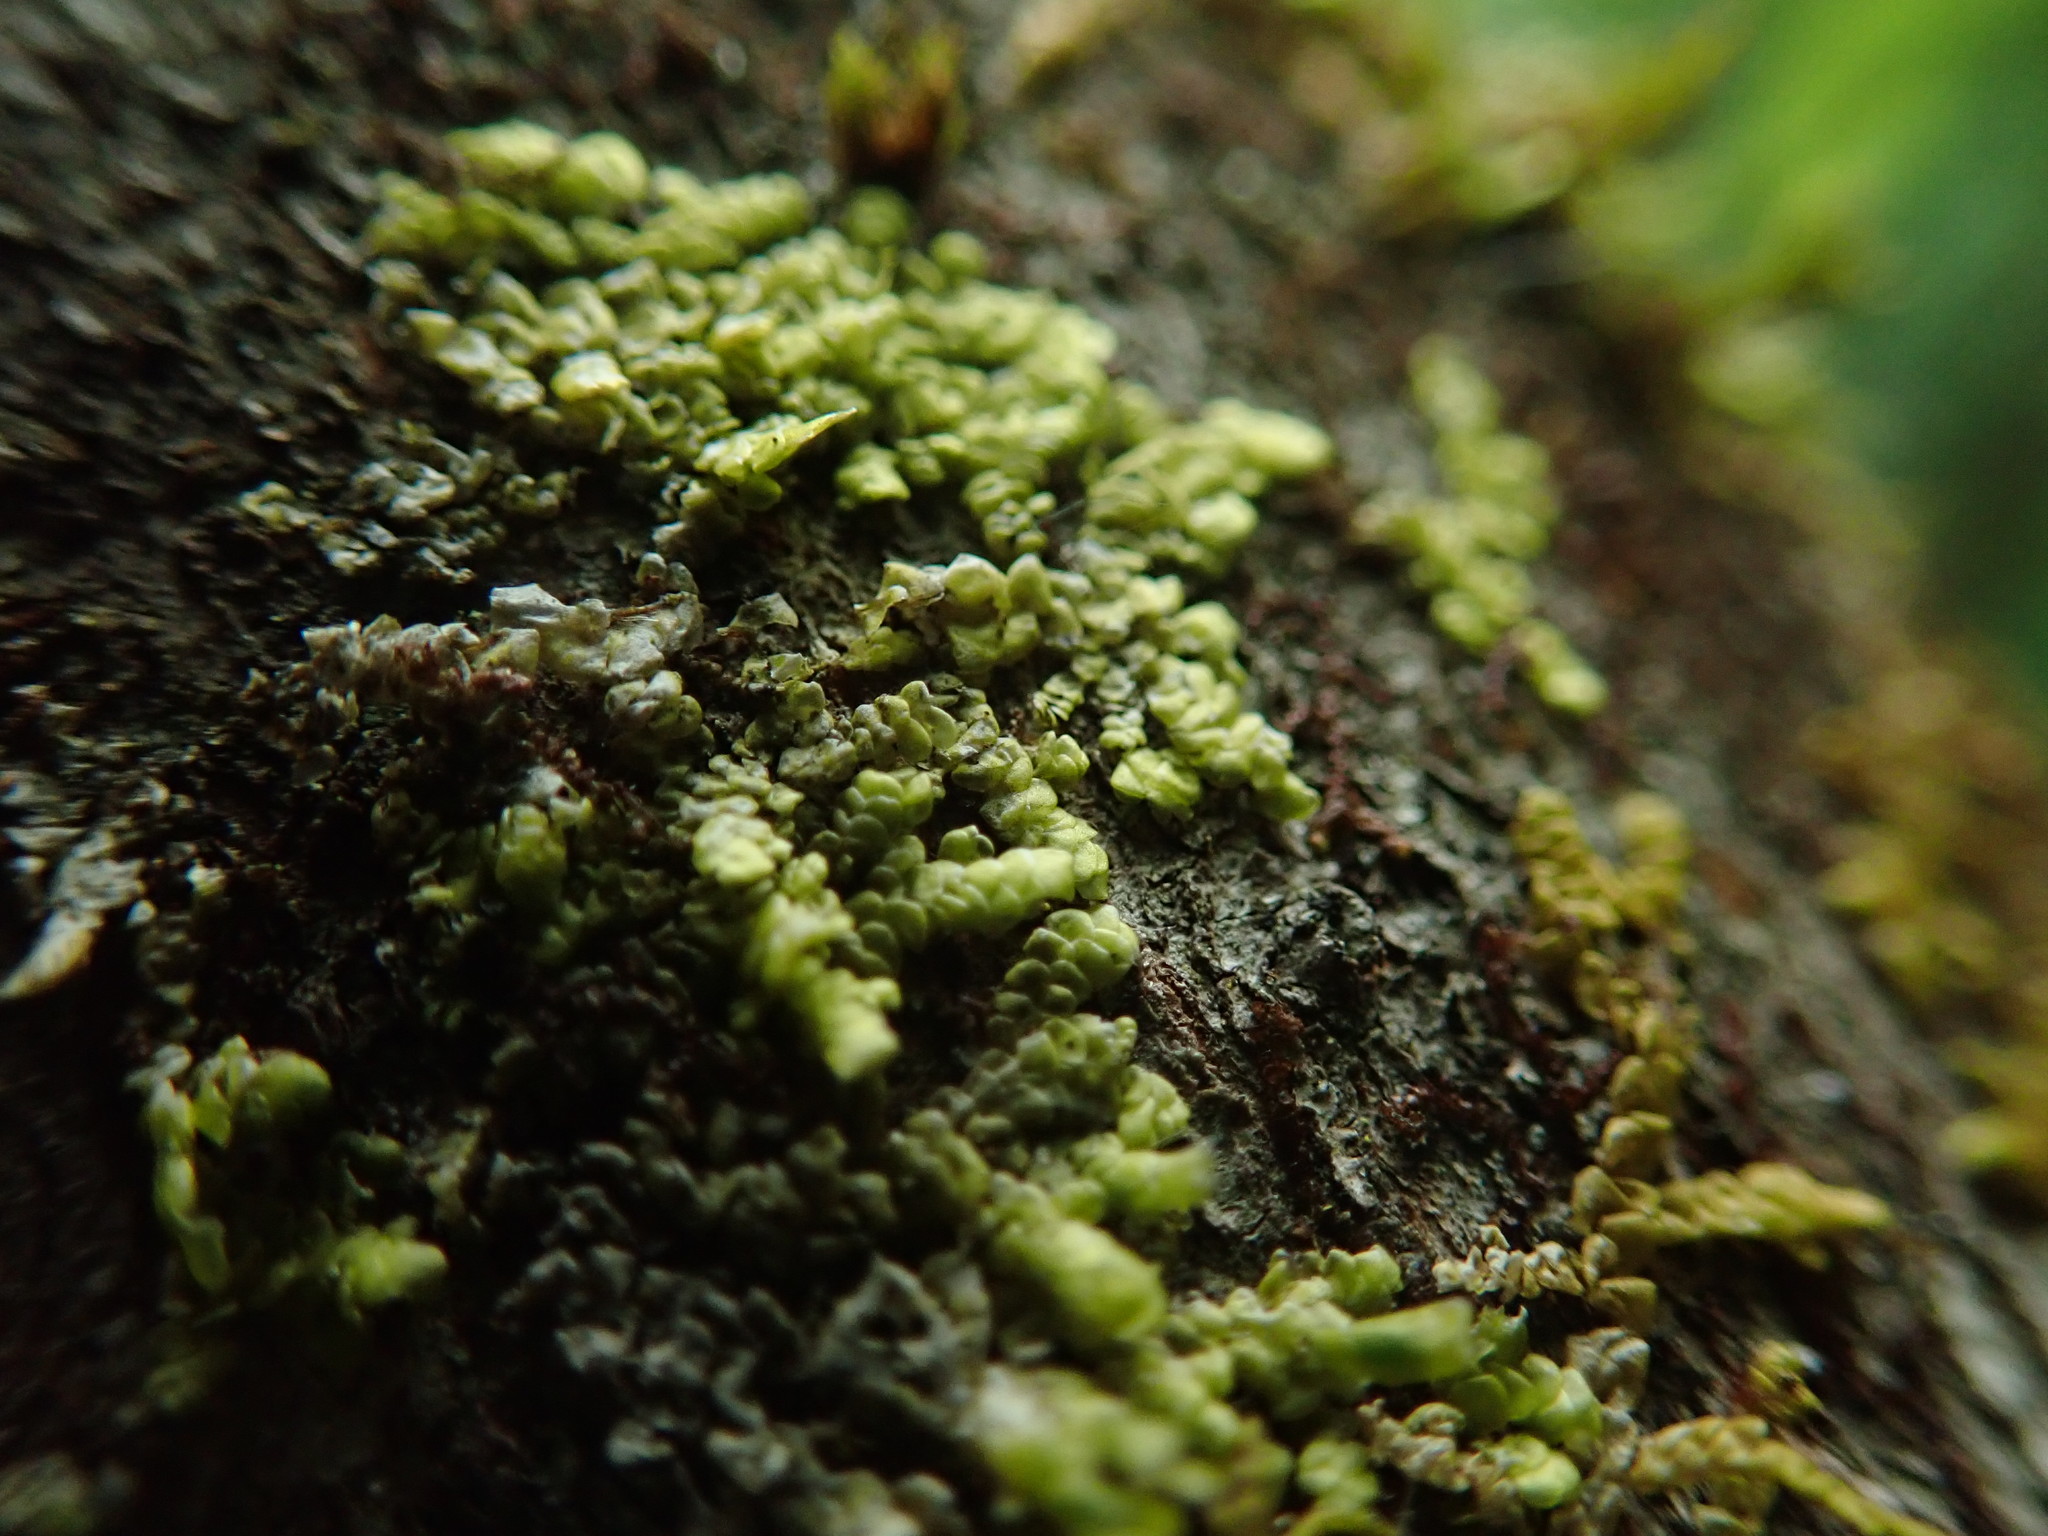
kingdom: Plantae
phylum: Marchantiophyta
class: Jungermanniopsida
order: Porellales
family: Radulaceae
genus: Radula
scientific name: Radula complanata
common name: Flat-leaved scalewort
